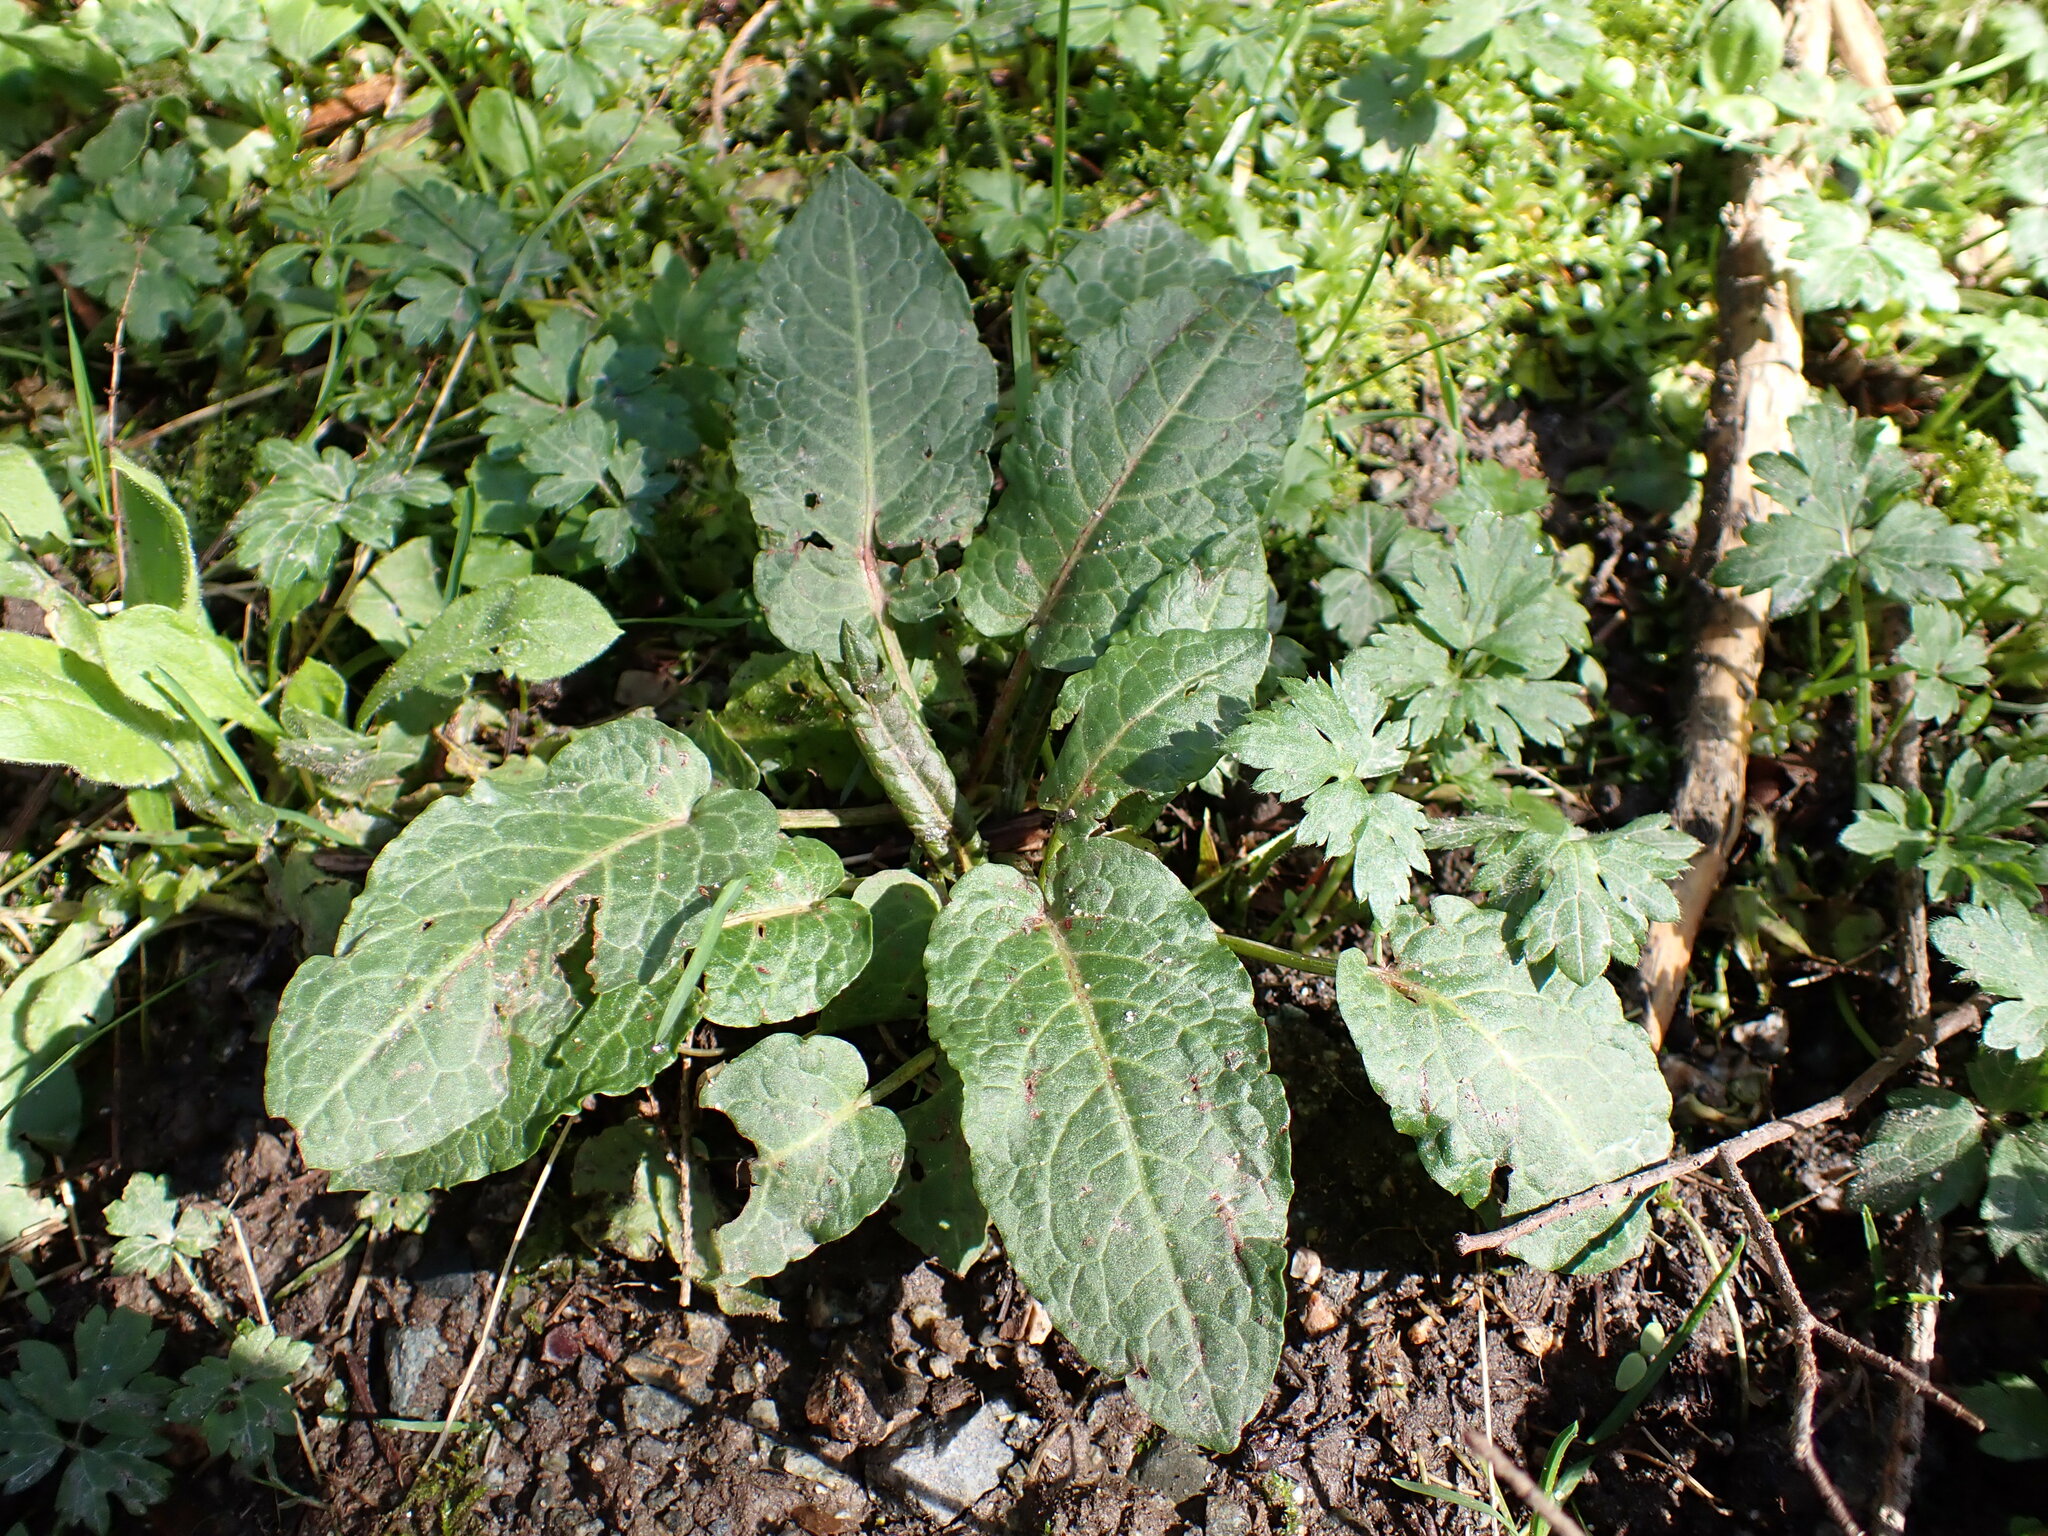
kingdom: Plantae
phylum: Tracheophyta
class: Magnoliopsida
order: Caryophyllales
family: Polygonaceae
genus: Rumex
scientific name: Rumex obtusifolius
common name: Bitter dock
